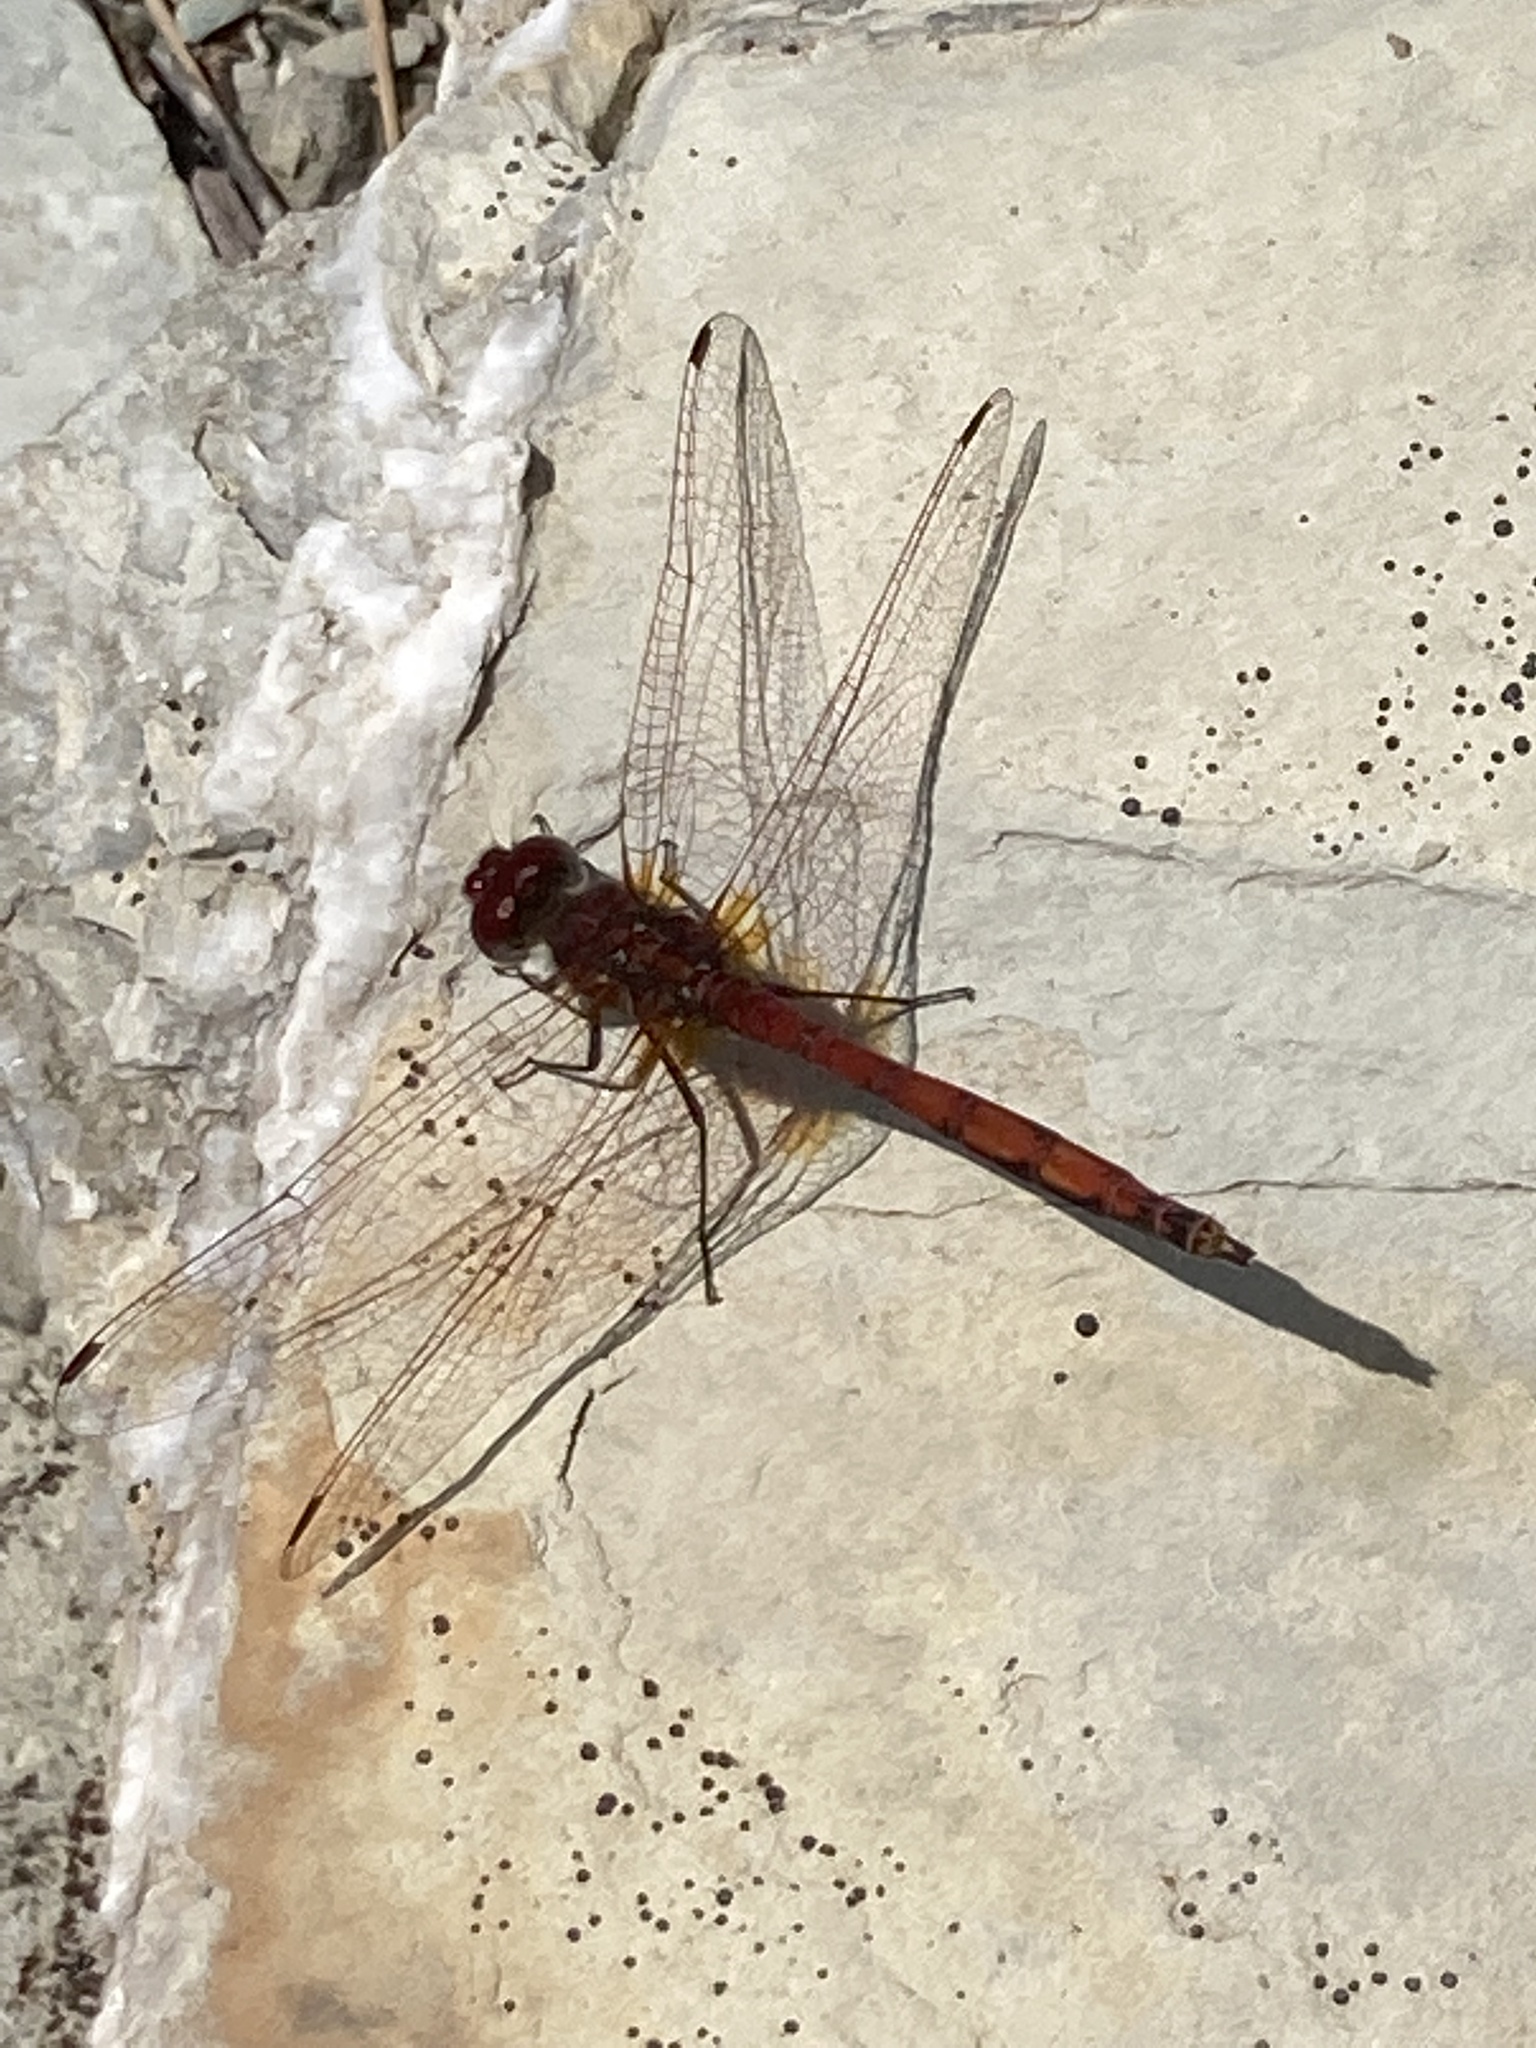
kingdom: Animalia
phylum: Arthropoda
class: Insecta
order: Odonata
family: Libellulidae
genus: Trithemis
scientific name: Trithemis arteriosa
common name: Red-veined dropwing
